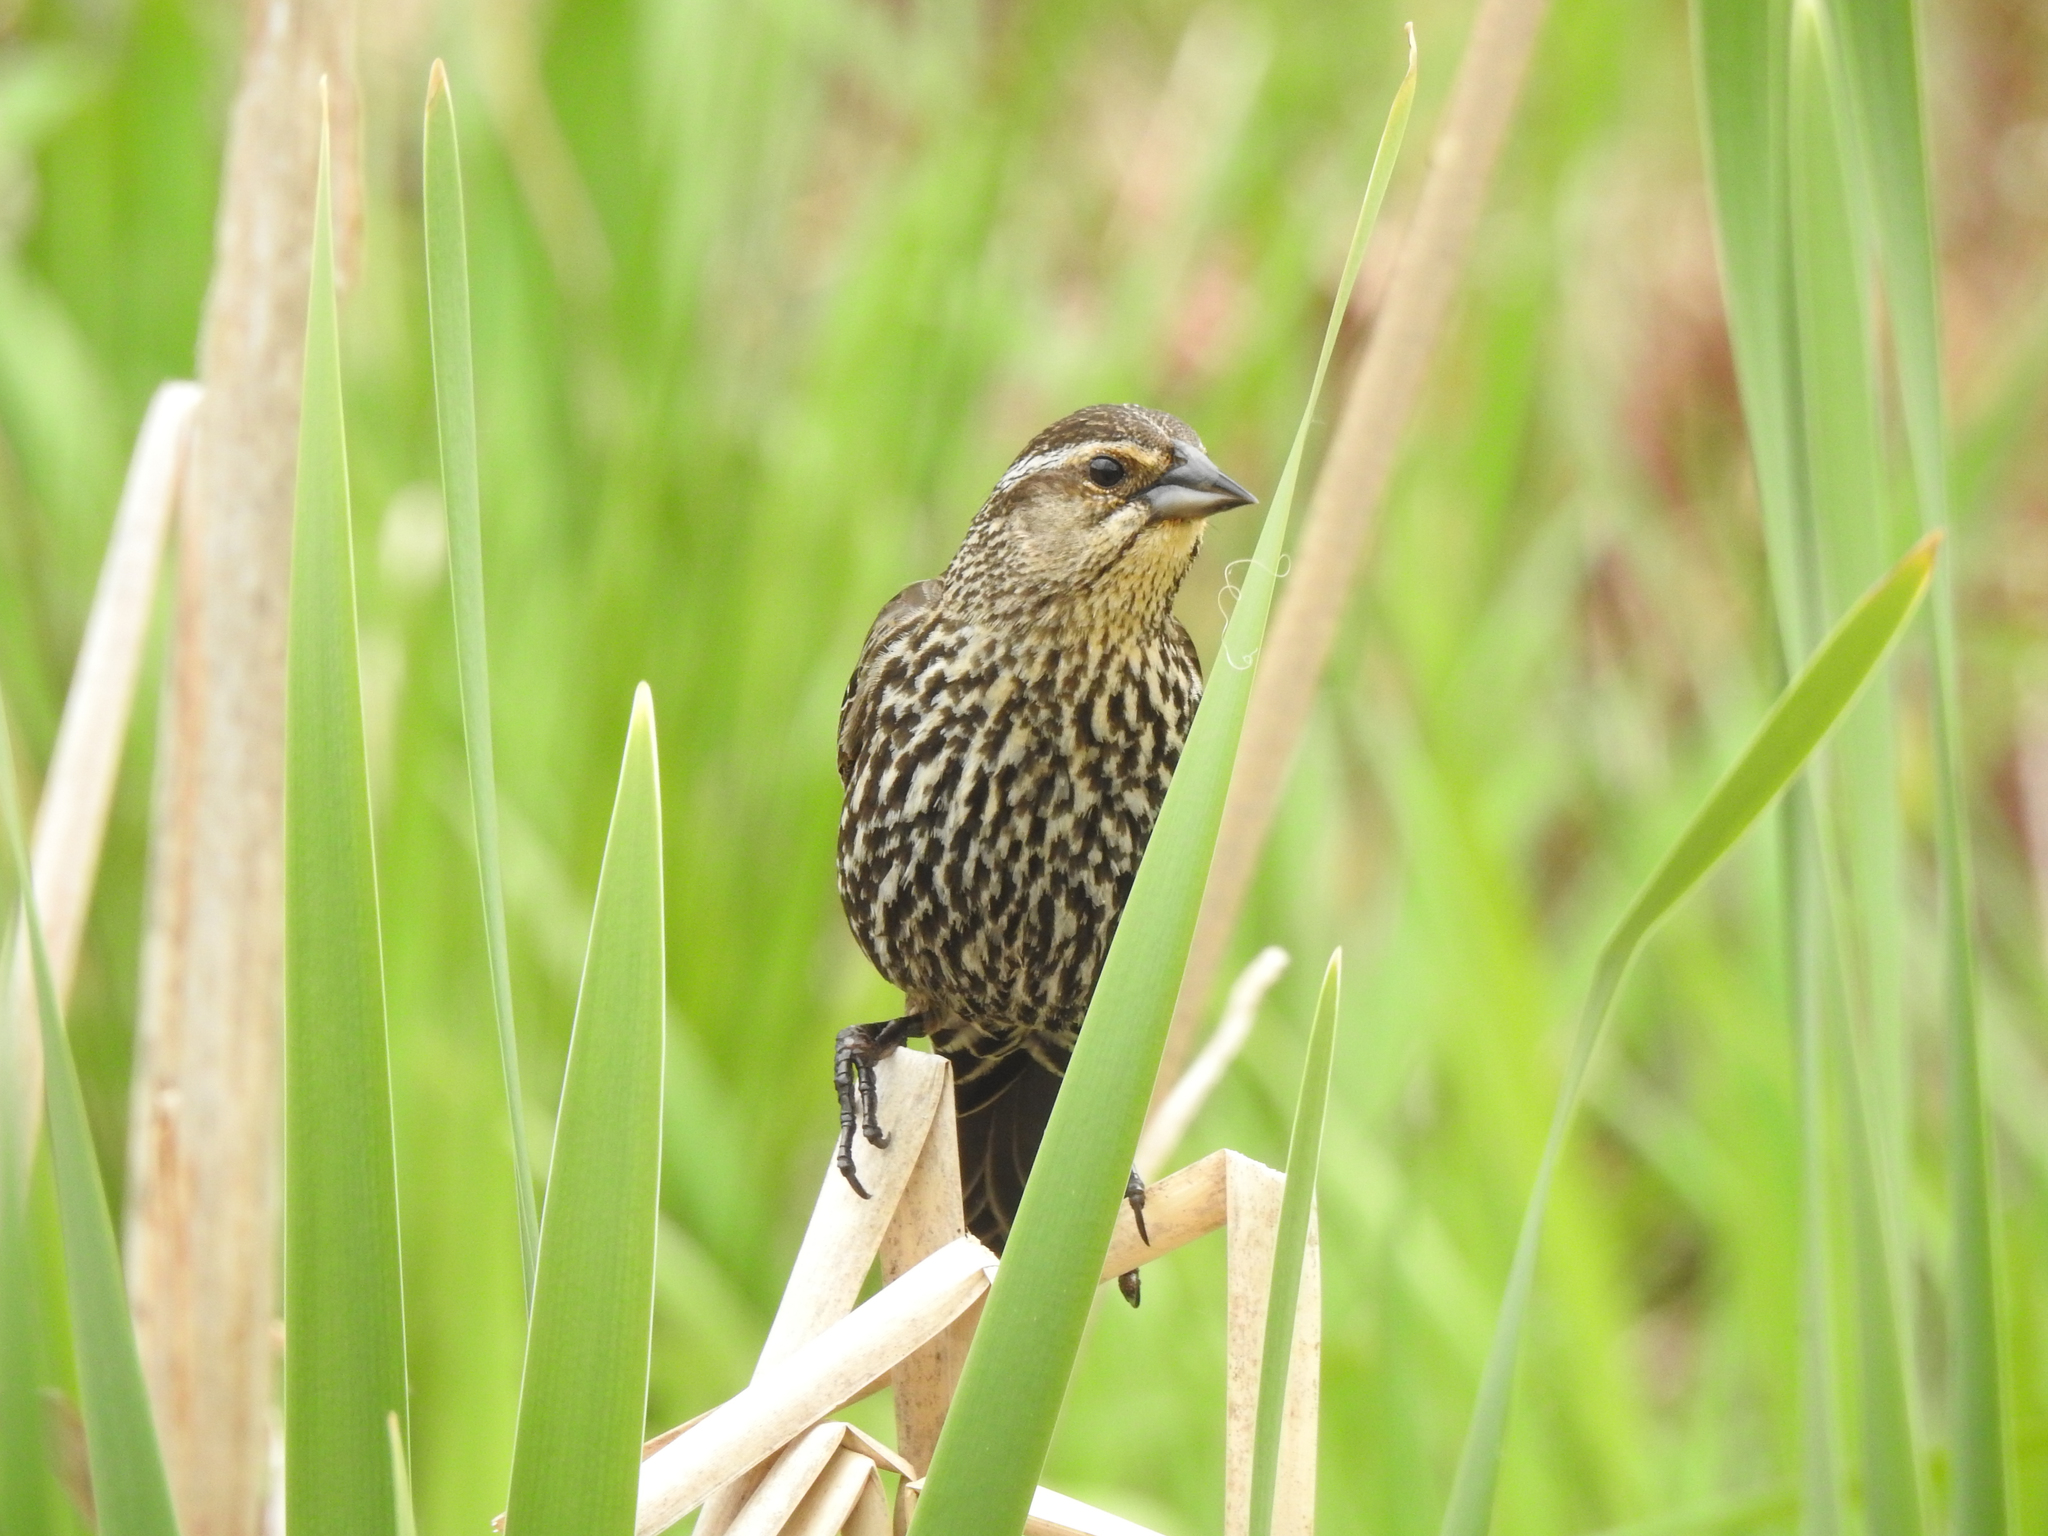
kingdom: Animalia
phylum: Chordata
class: Aves
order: Passeriformes
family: Icteridae
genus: Agelaius
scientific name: Agelaius phoeniceus
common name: Red-winged blackbird
